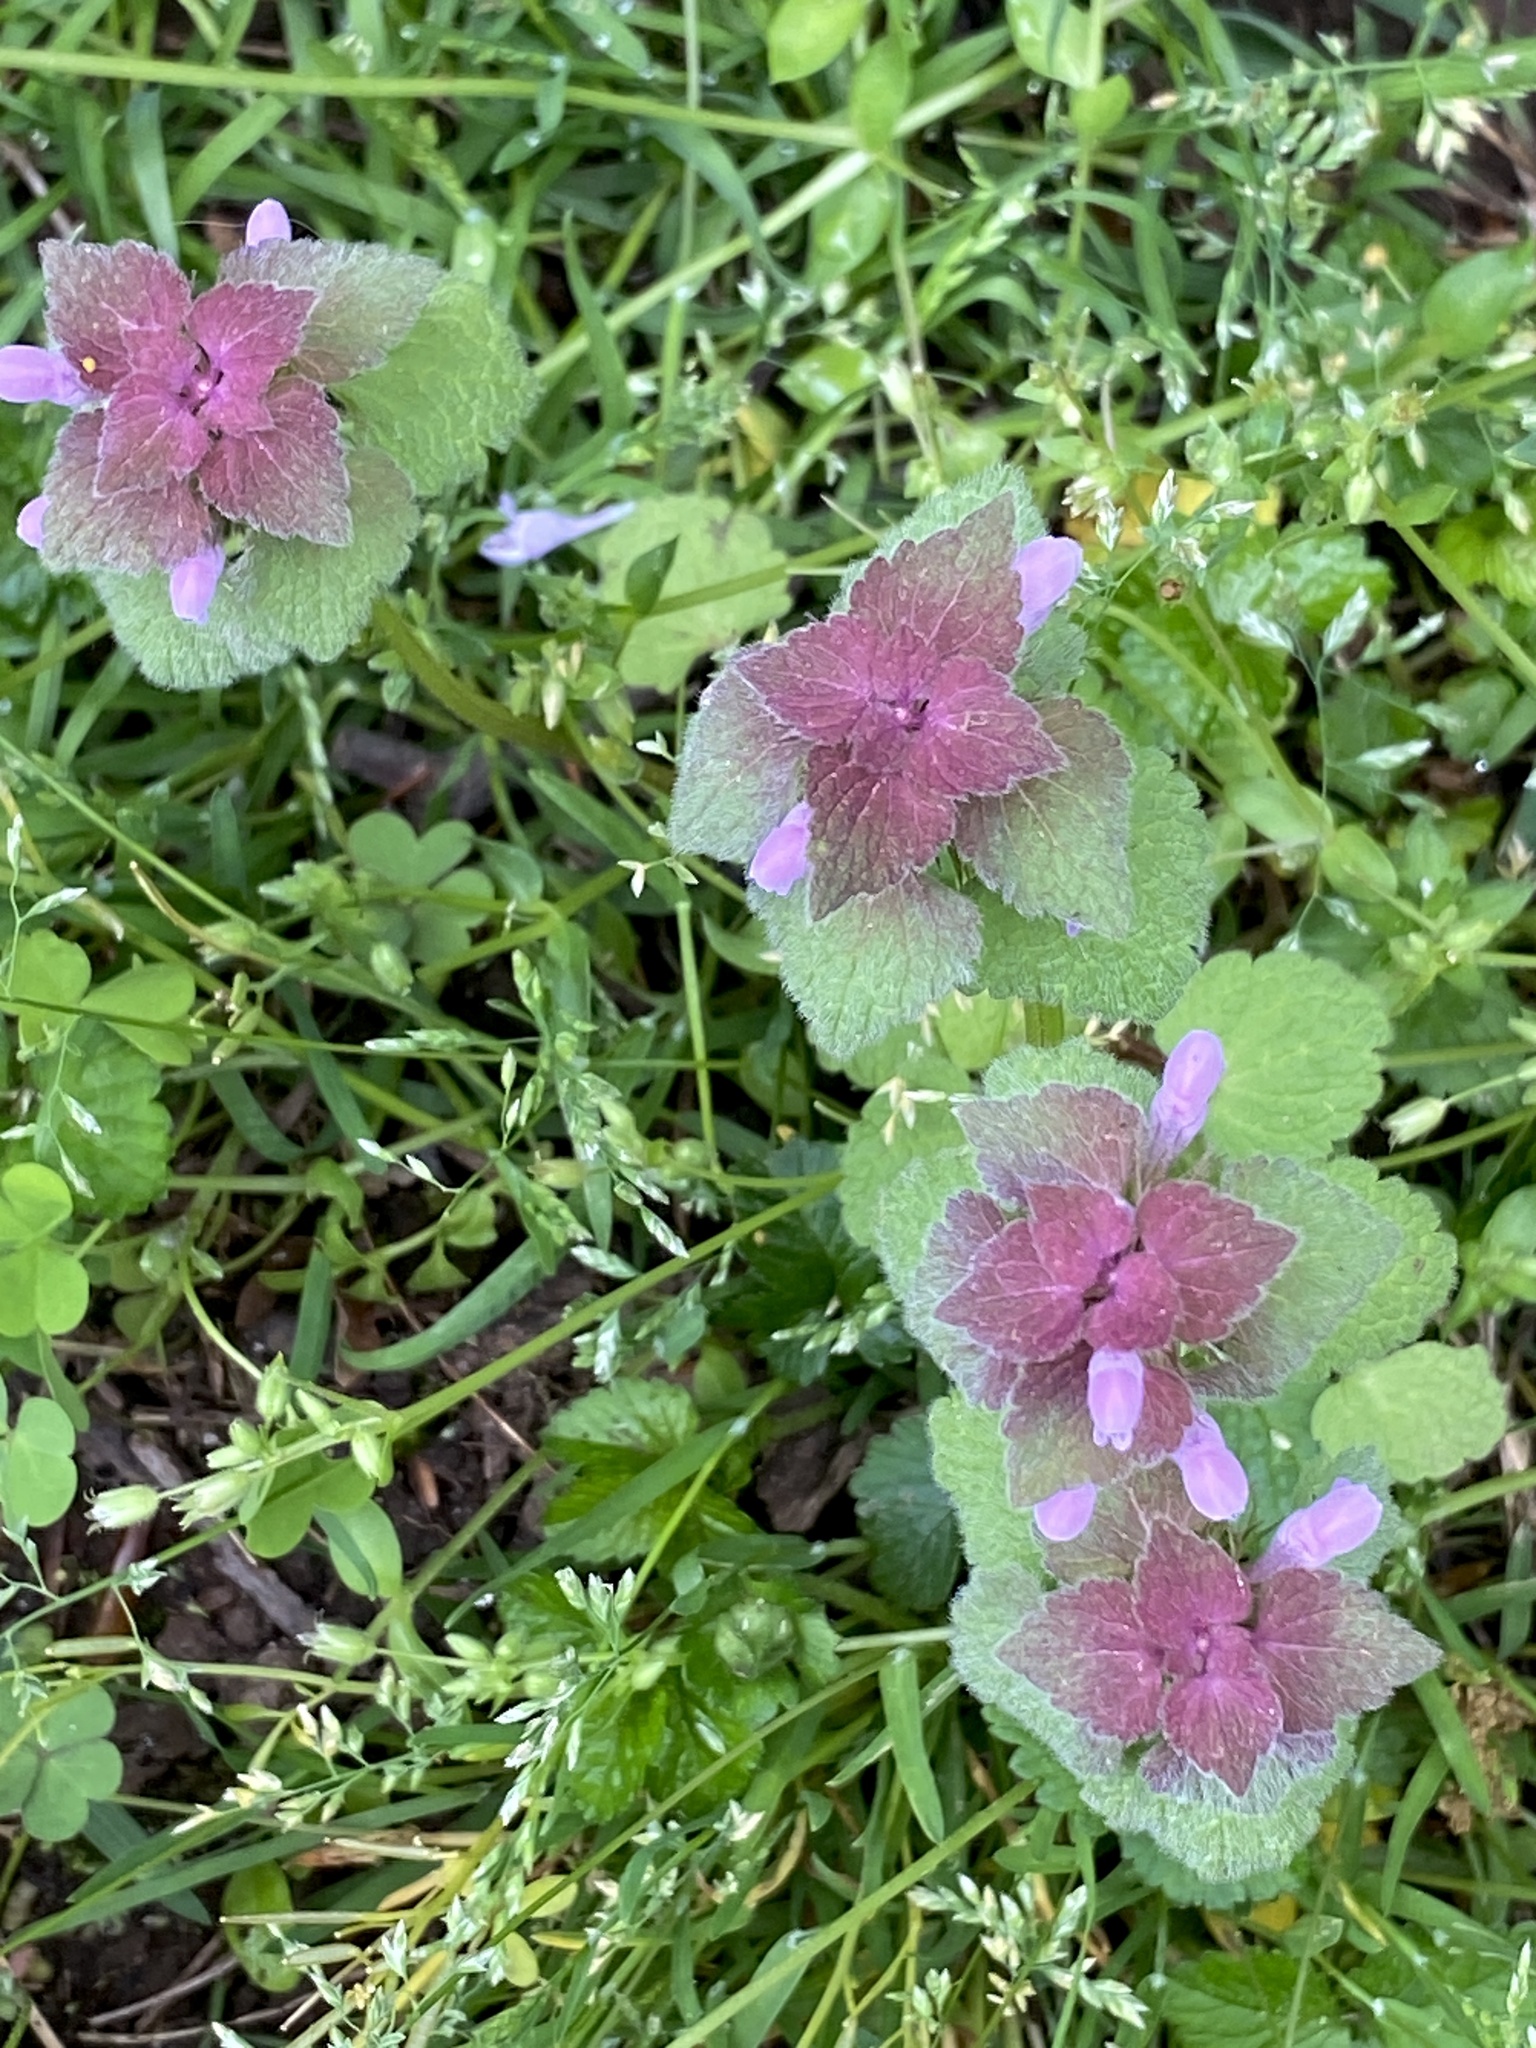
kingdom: Plantae
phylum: Tracheophyta
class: Magnoliopsida
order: Lamiales
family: Lamiaceae
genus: Lamium
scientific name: Lamium purpureum
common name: Red dead-nettle
